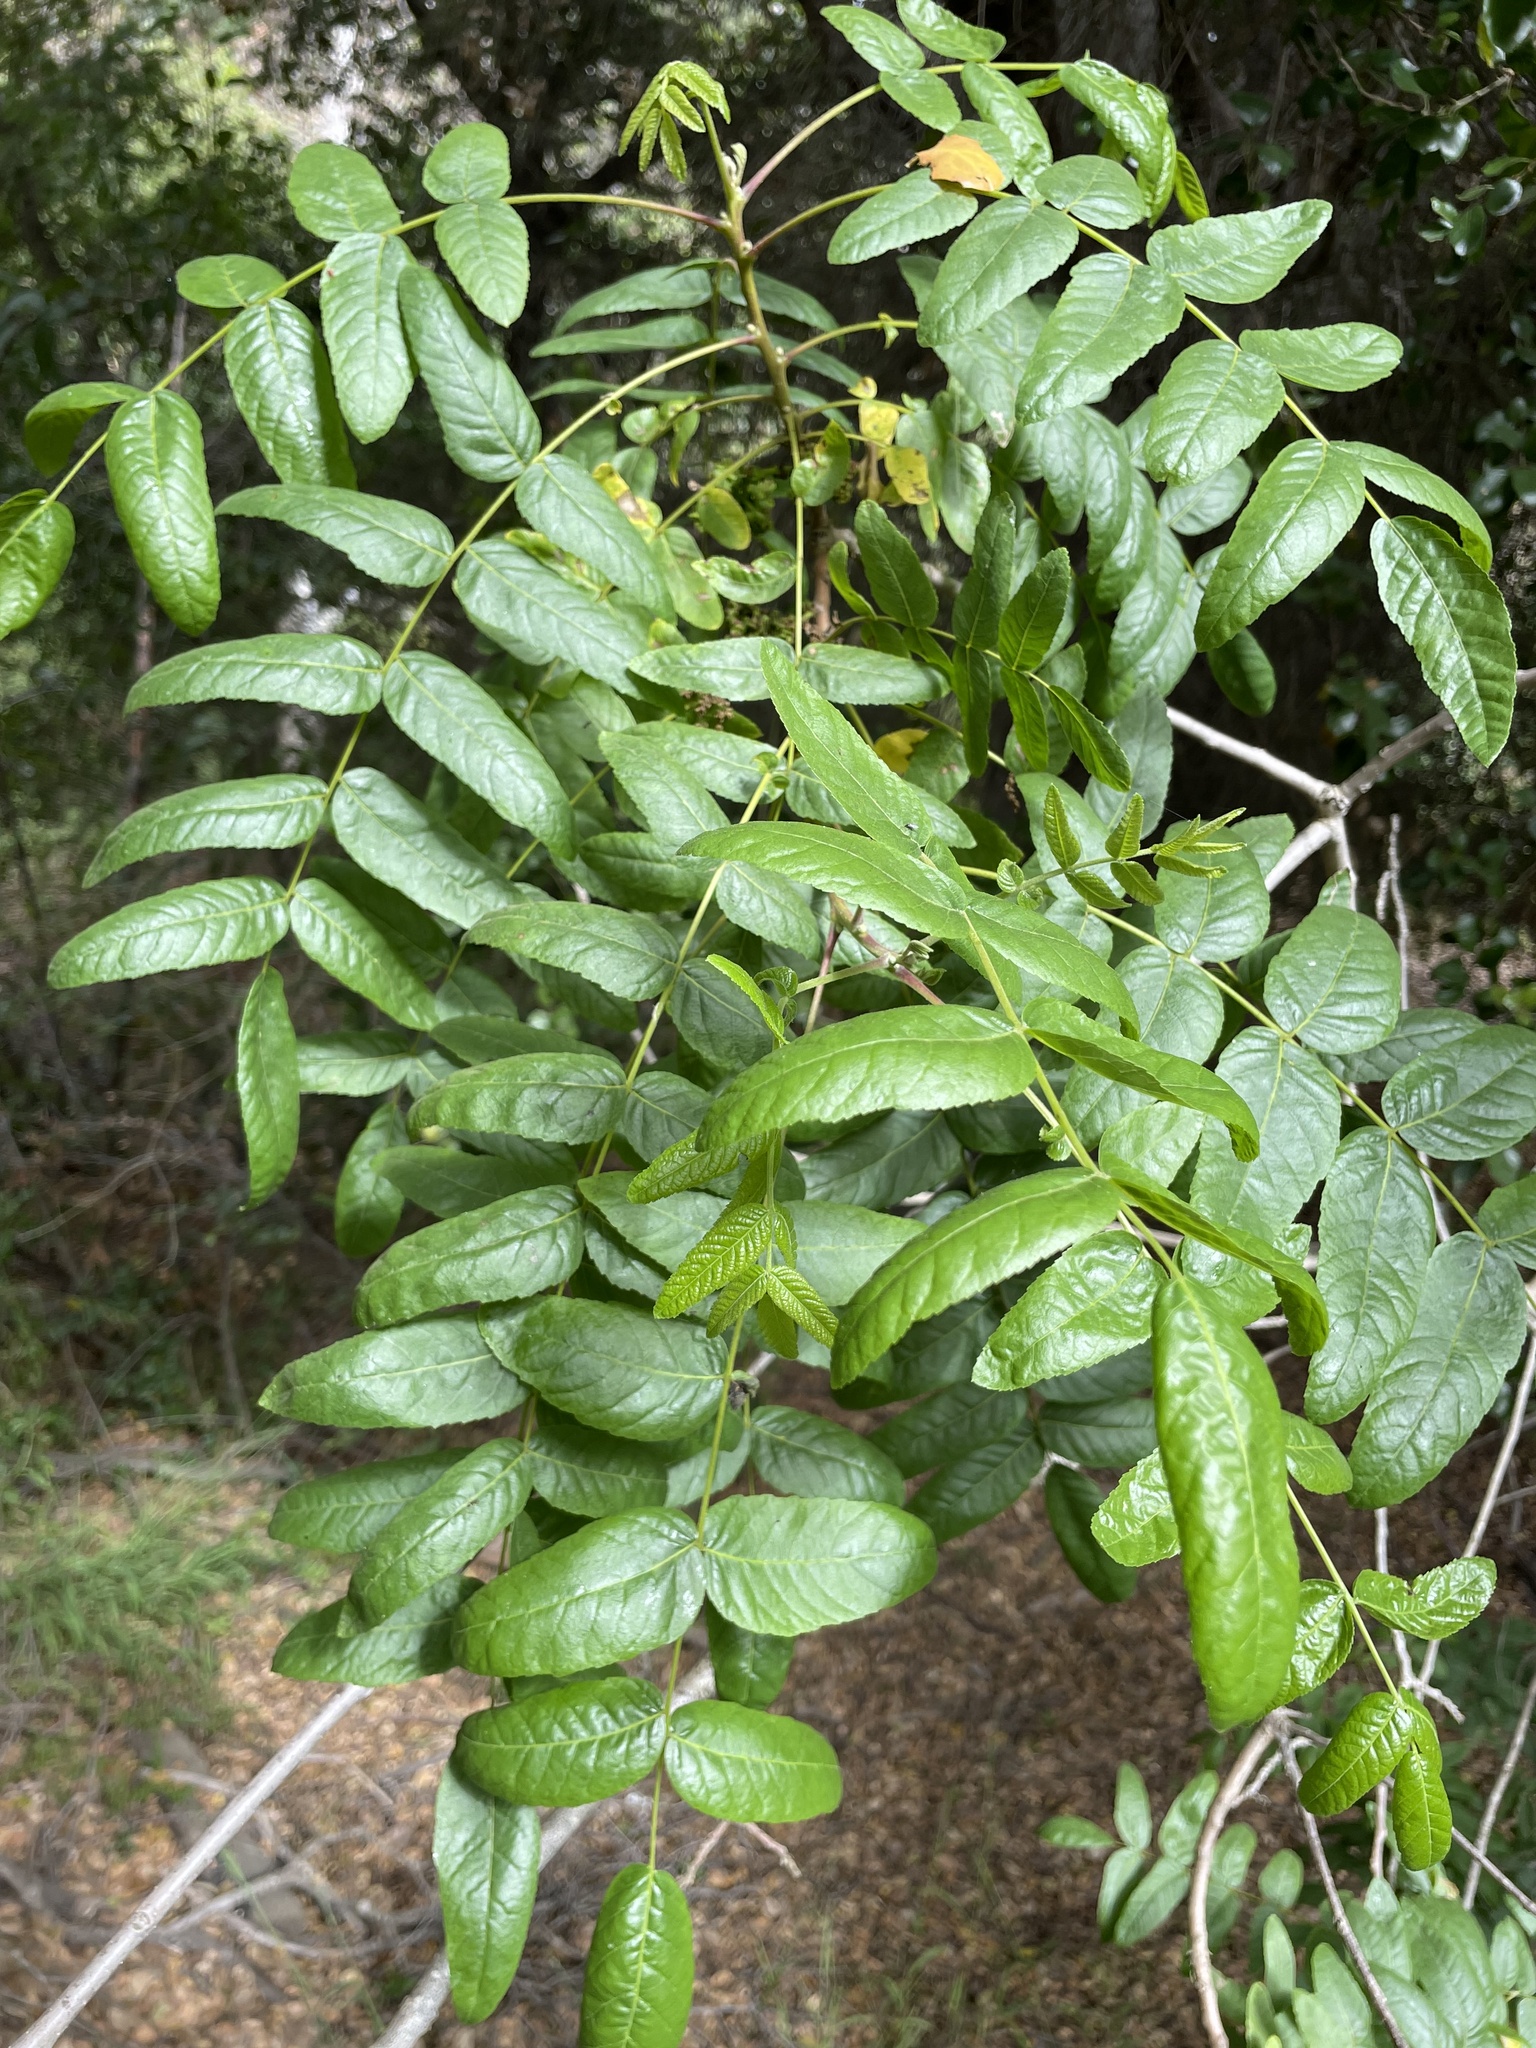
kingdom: Plantae
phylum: Tracheophyta
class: Magnoliopsida
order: Fagales
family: Juglandaceae
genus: Juglans
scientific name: Juglans californica
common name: Southern california black walnut
